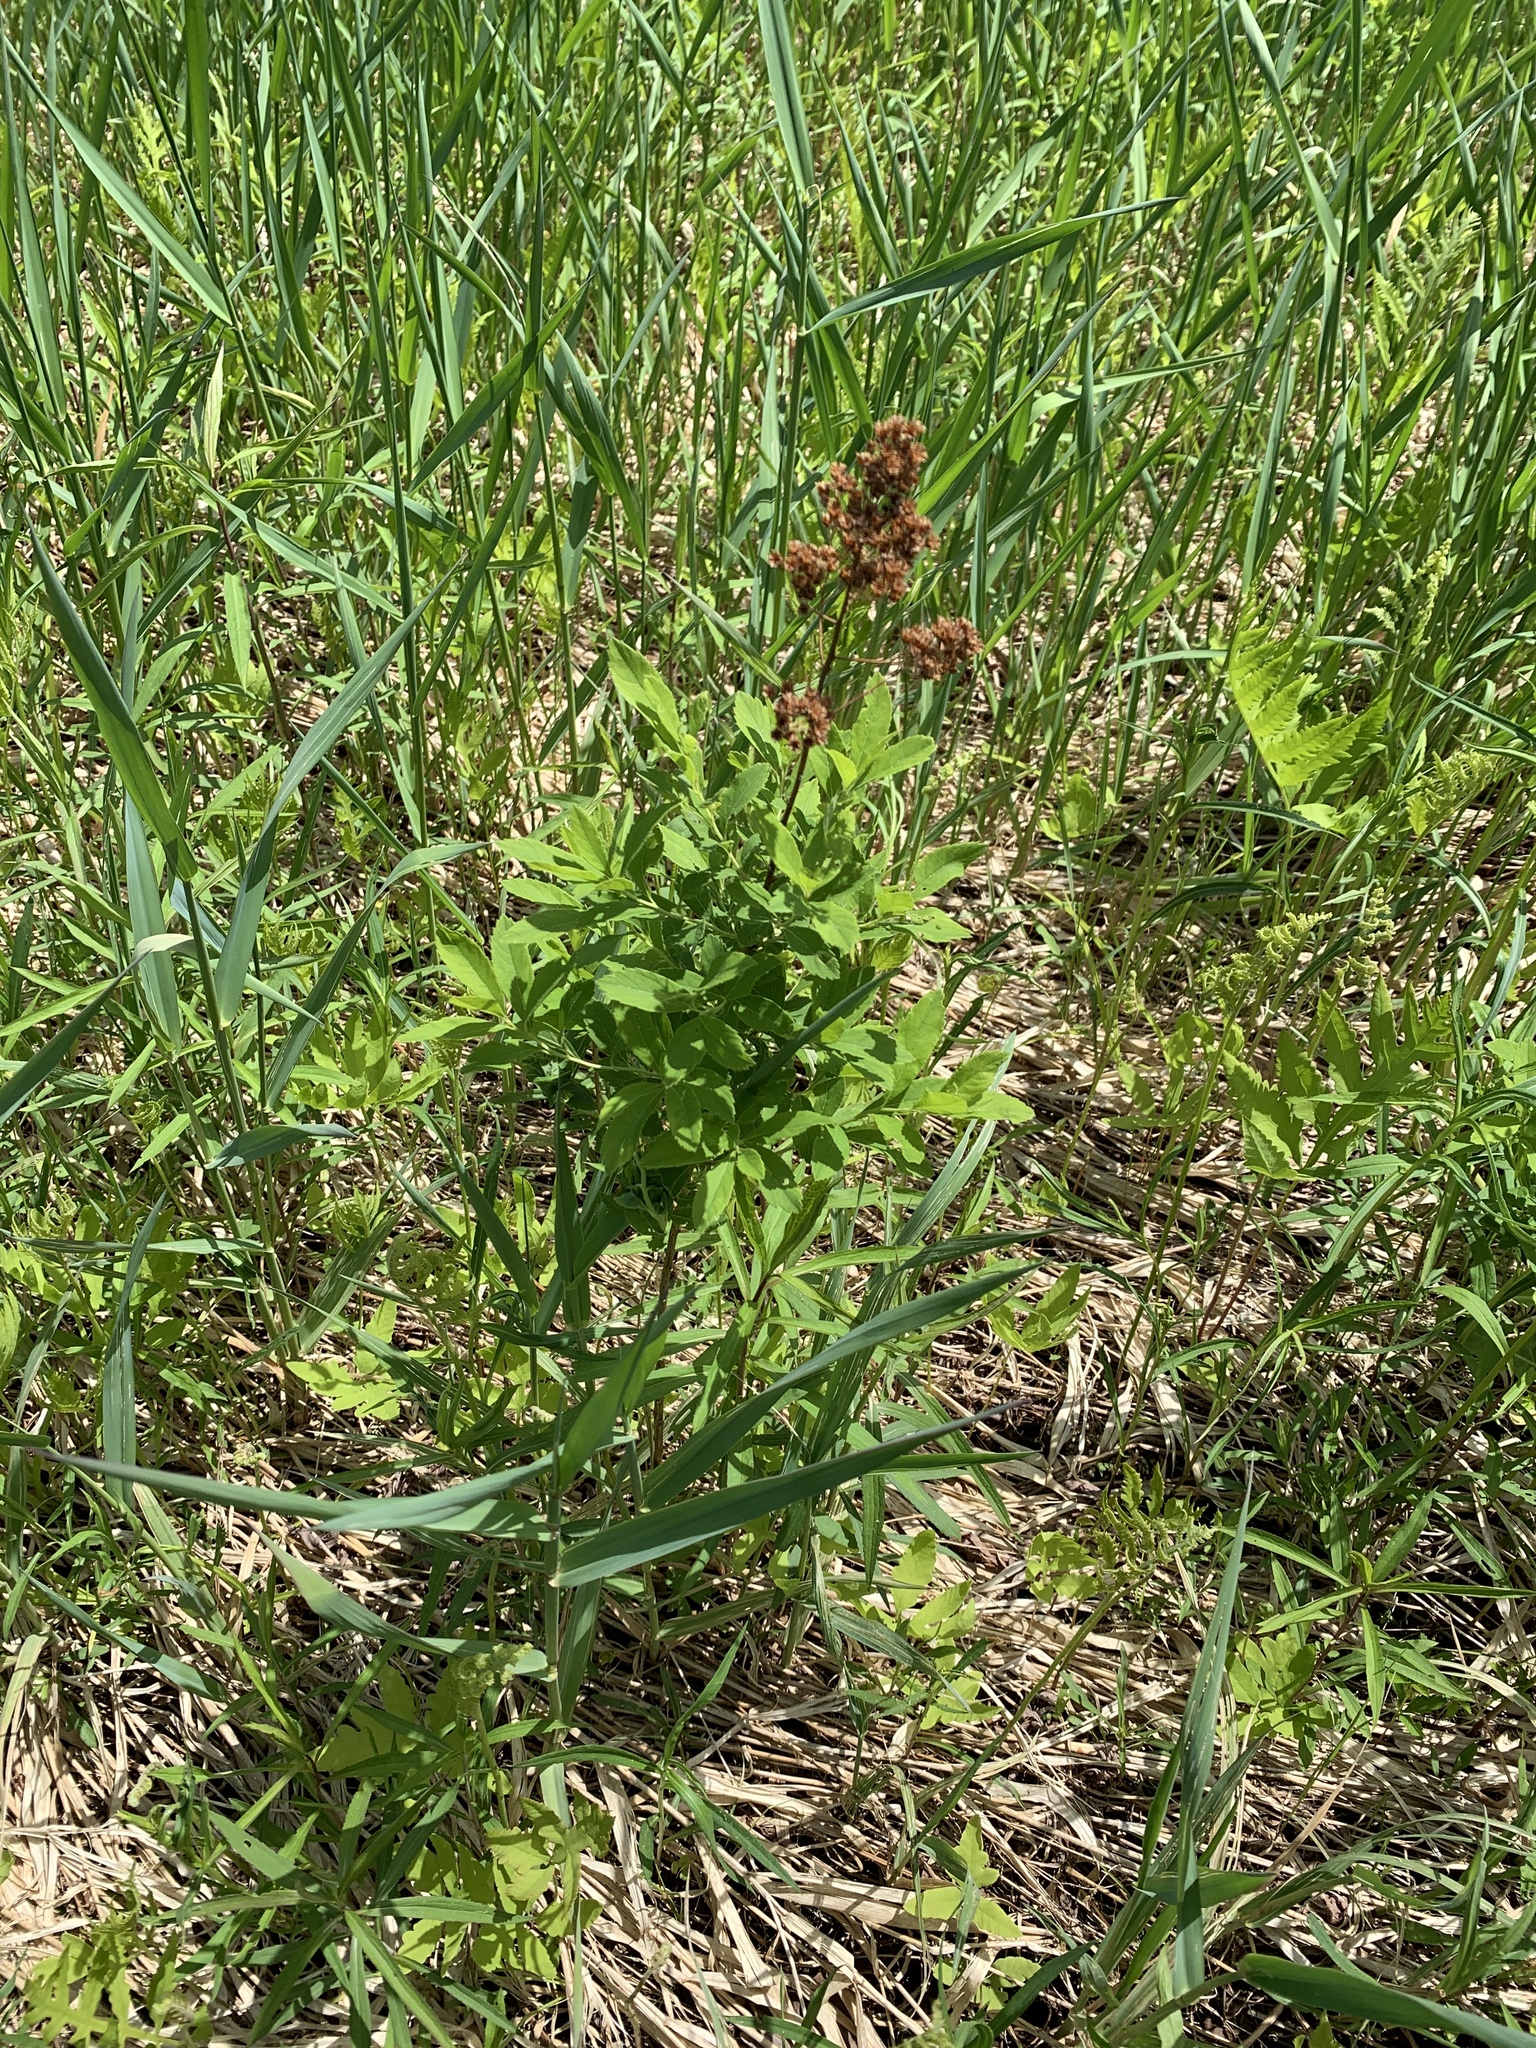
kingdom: Plantae
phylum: Tracheophyta
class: Magnoliopsida
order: Rosales
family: Rosaceae
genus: Spiraea
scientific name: Spiraea alba
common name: Pale bridewort
